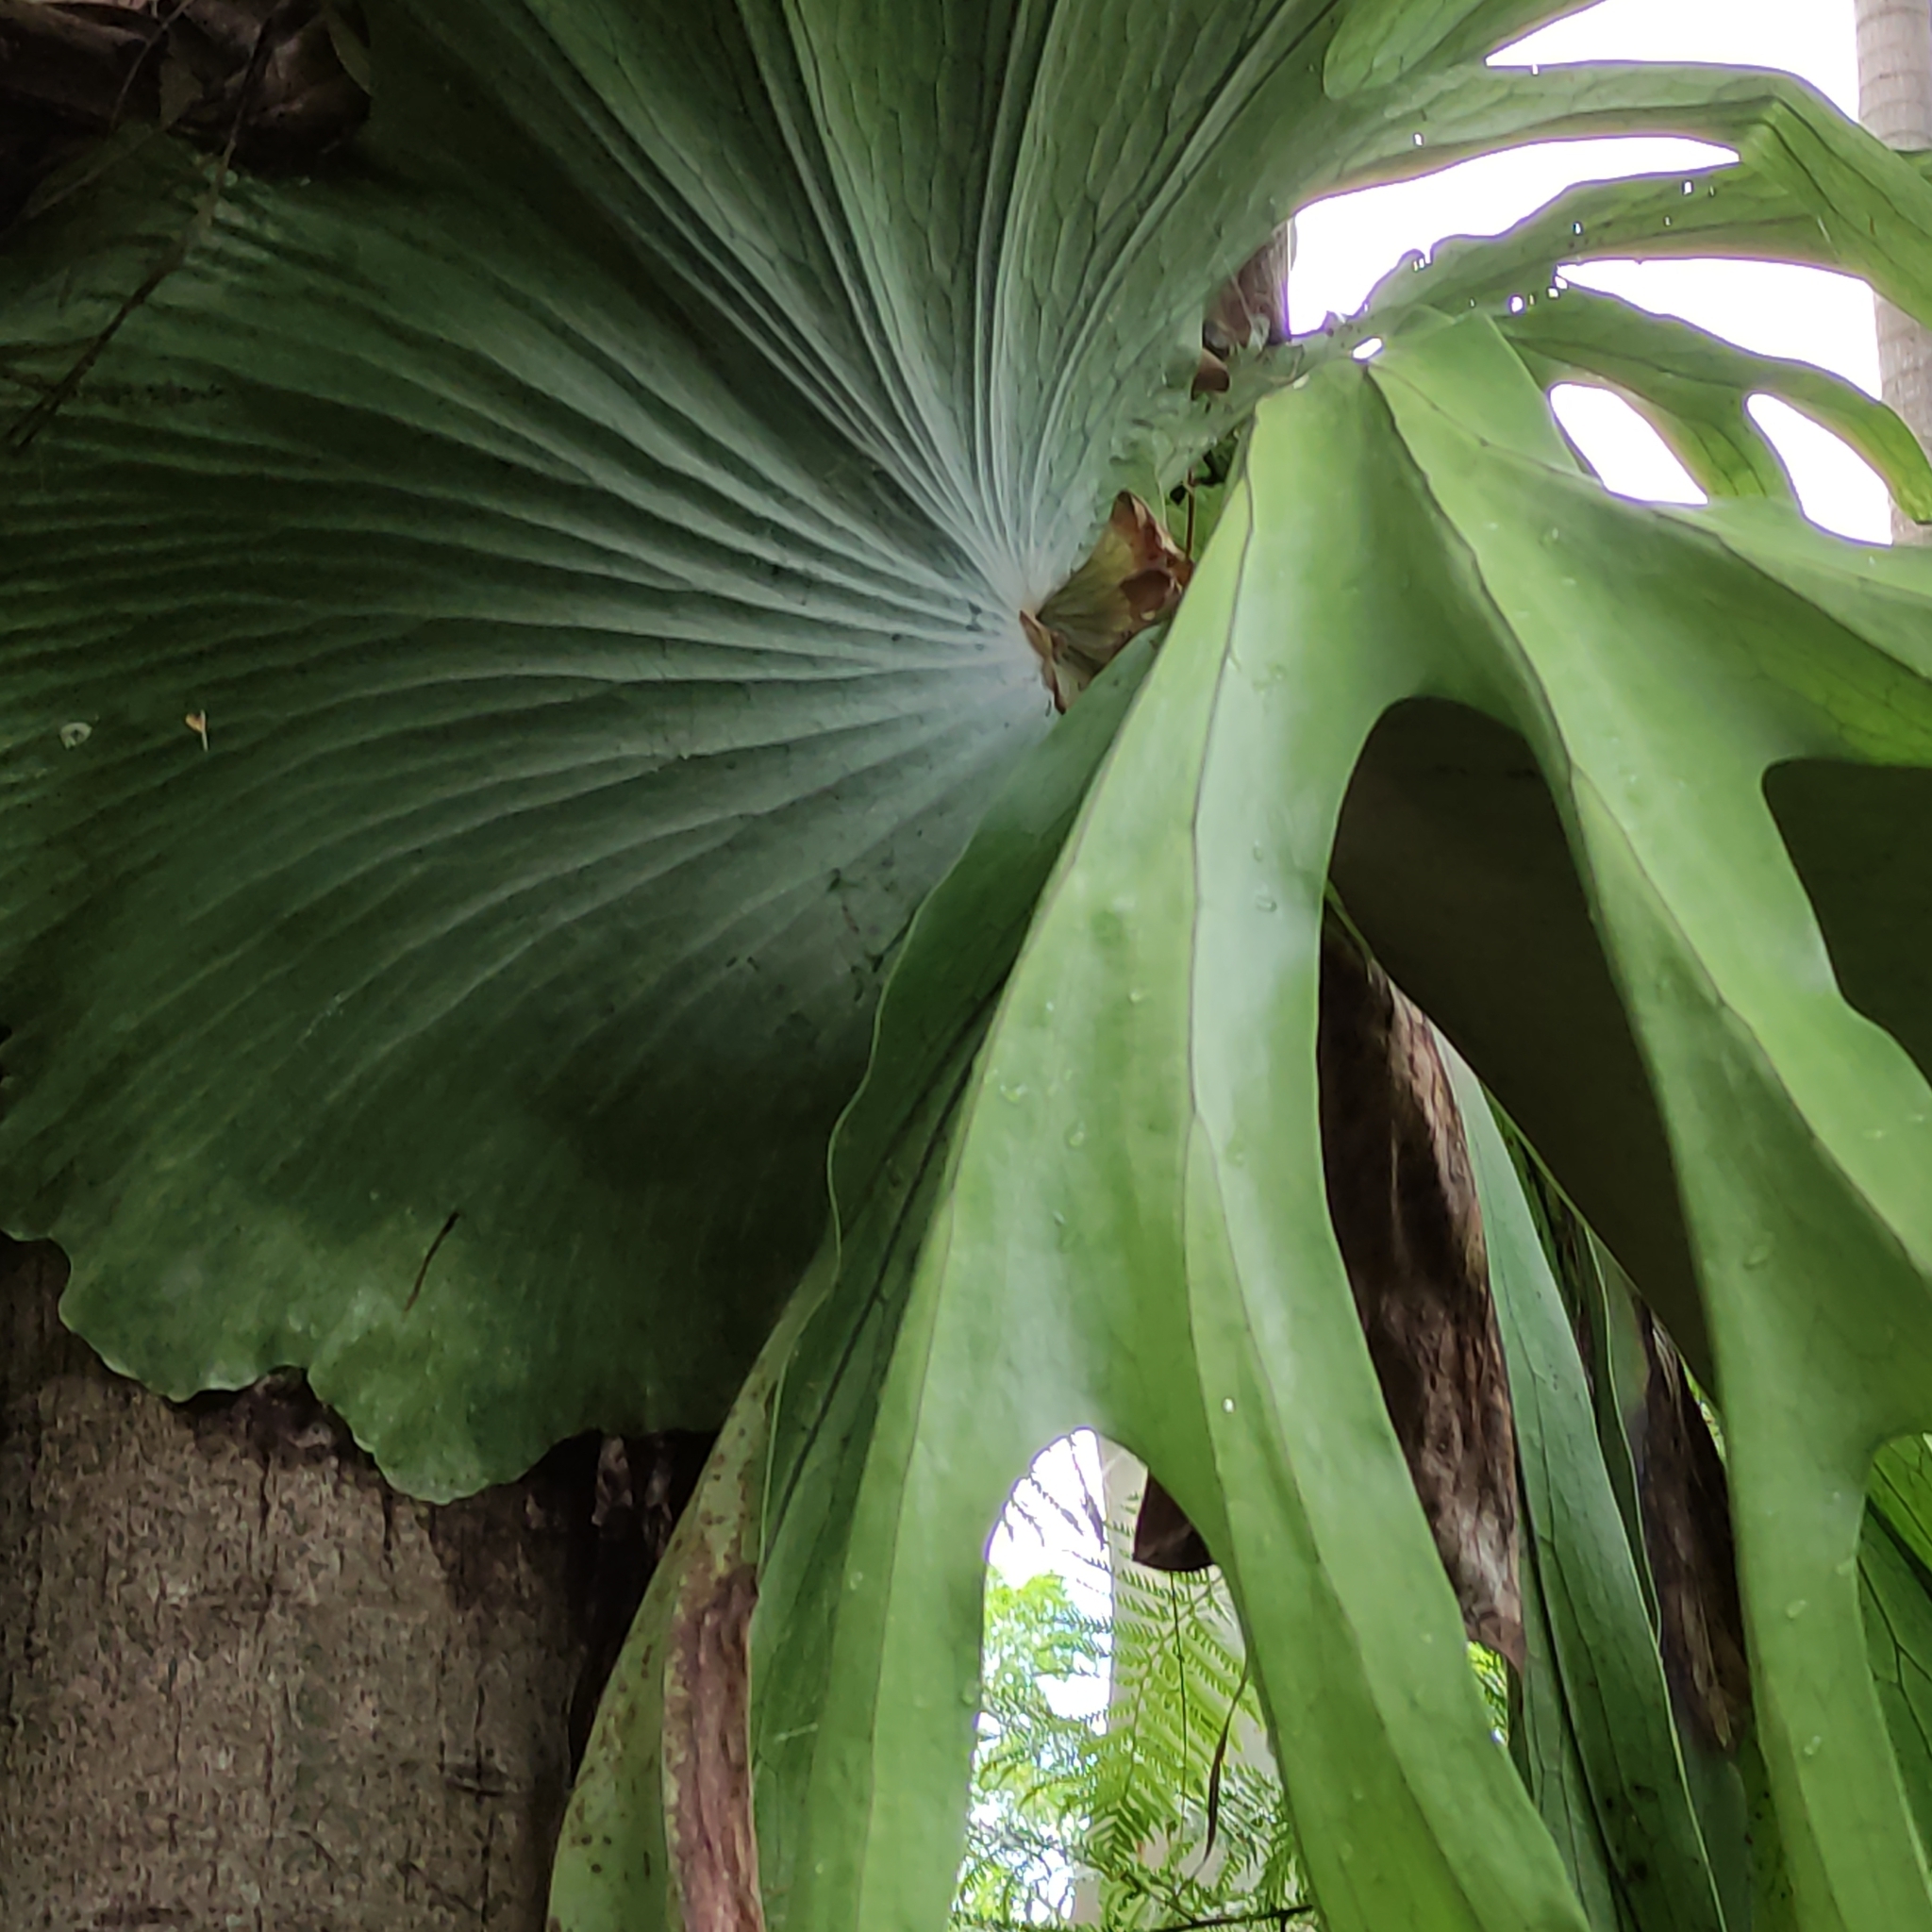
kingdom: Plantae
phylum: Tracheophyta
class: Polypodiopsida
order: Polypodiales
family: Polypodiaceae
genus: Platycerium
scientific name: Platycerium superbum
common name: Staghorn fern
